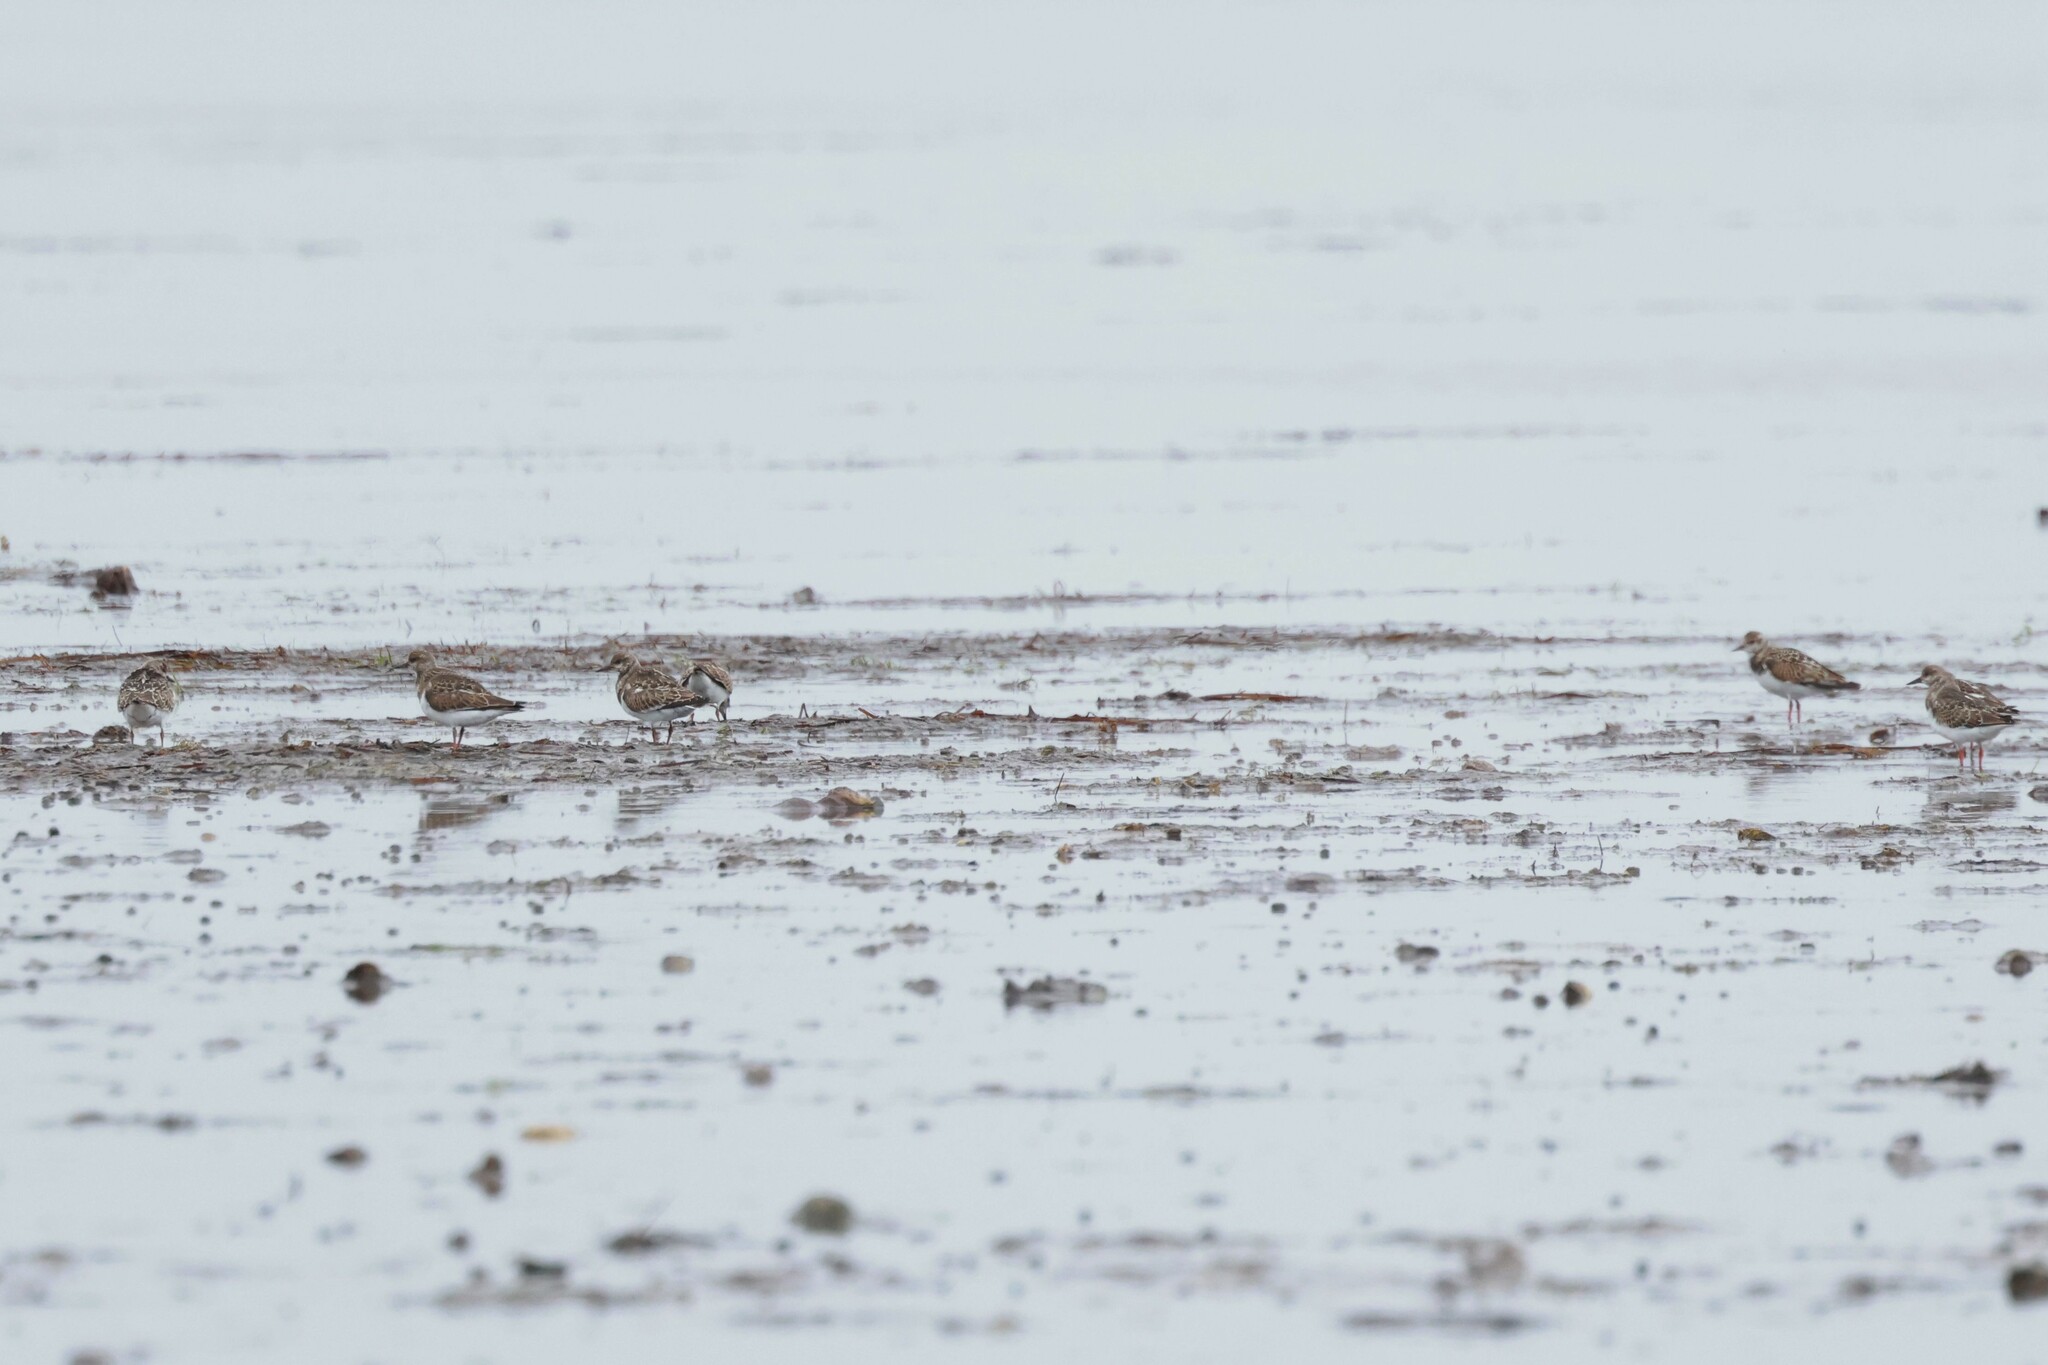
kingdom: Animalia
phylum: Chordata
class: Aves
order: Charadriiformes
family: Scolopacidae
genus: Arenaria
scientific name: Arenaria interpres
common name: Ruddy turnstone
